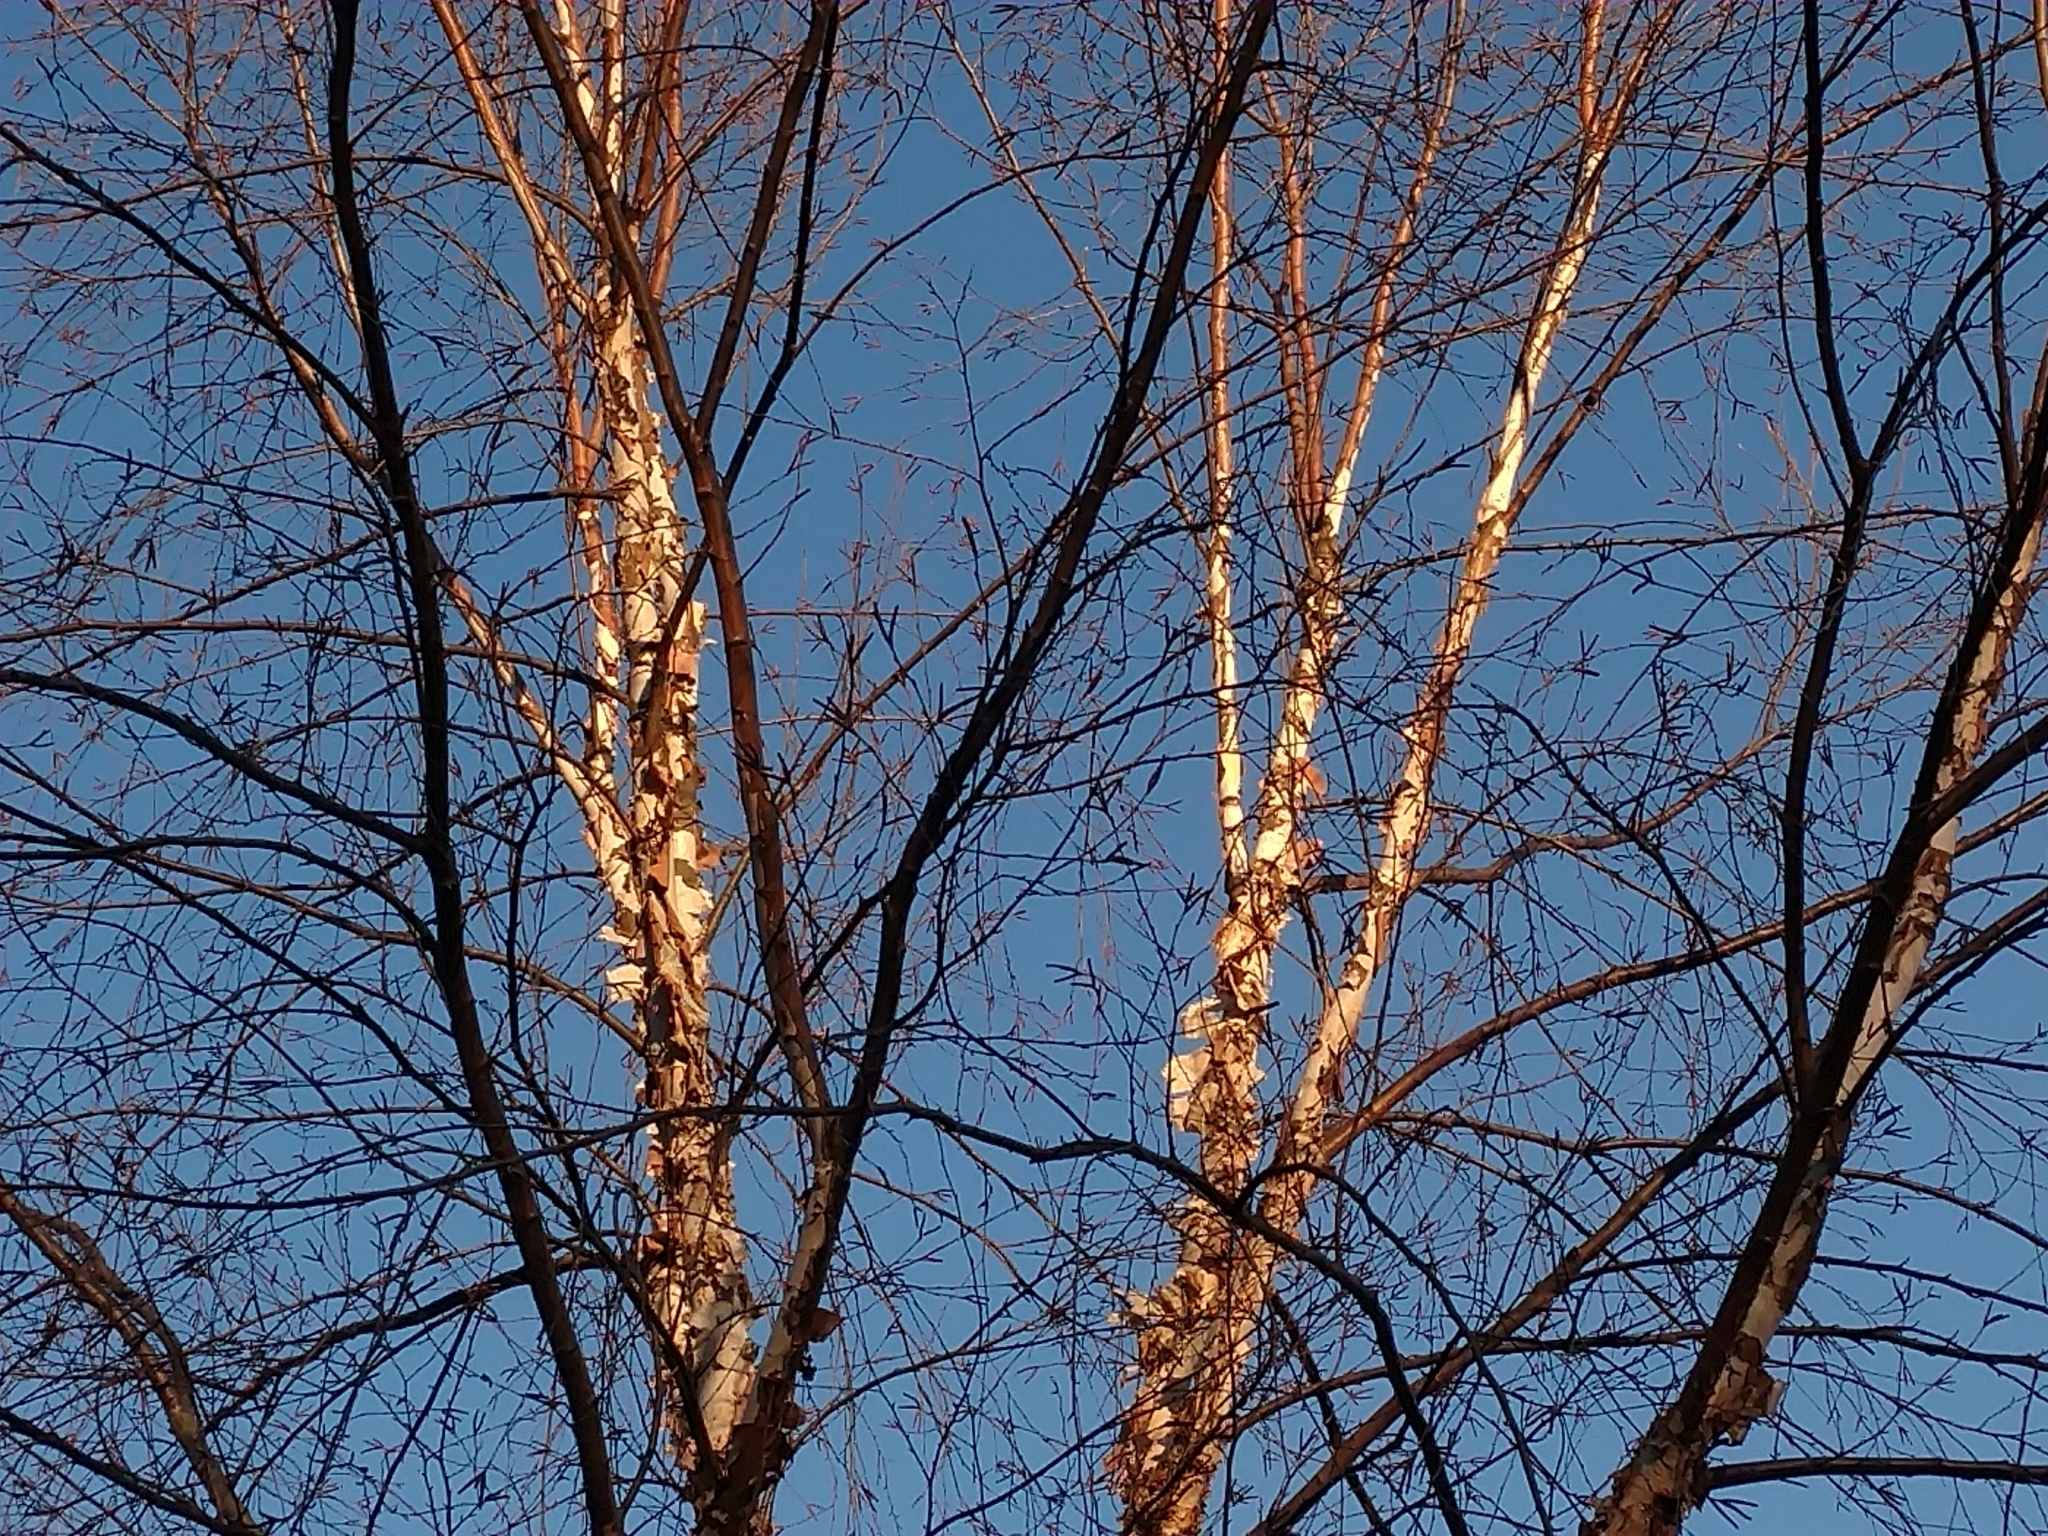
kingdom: Plantae
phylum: Tracheophyta
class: Magnoliopsida
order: Fagales
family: Betulaceae
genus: Betula
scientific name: Betula nigra
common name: Black birch
